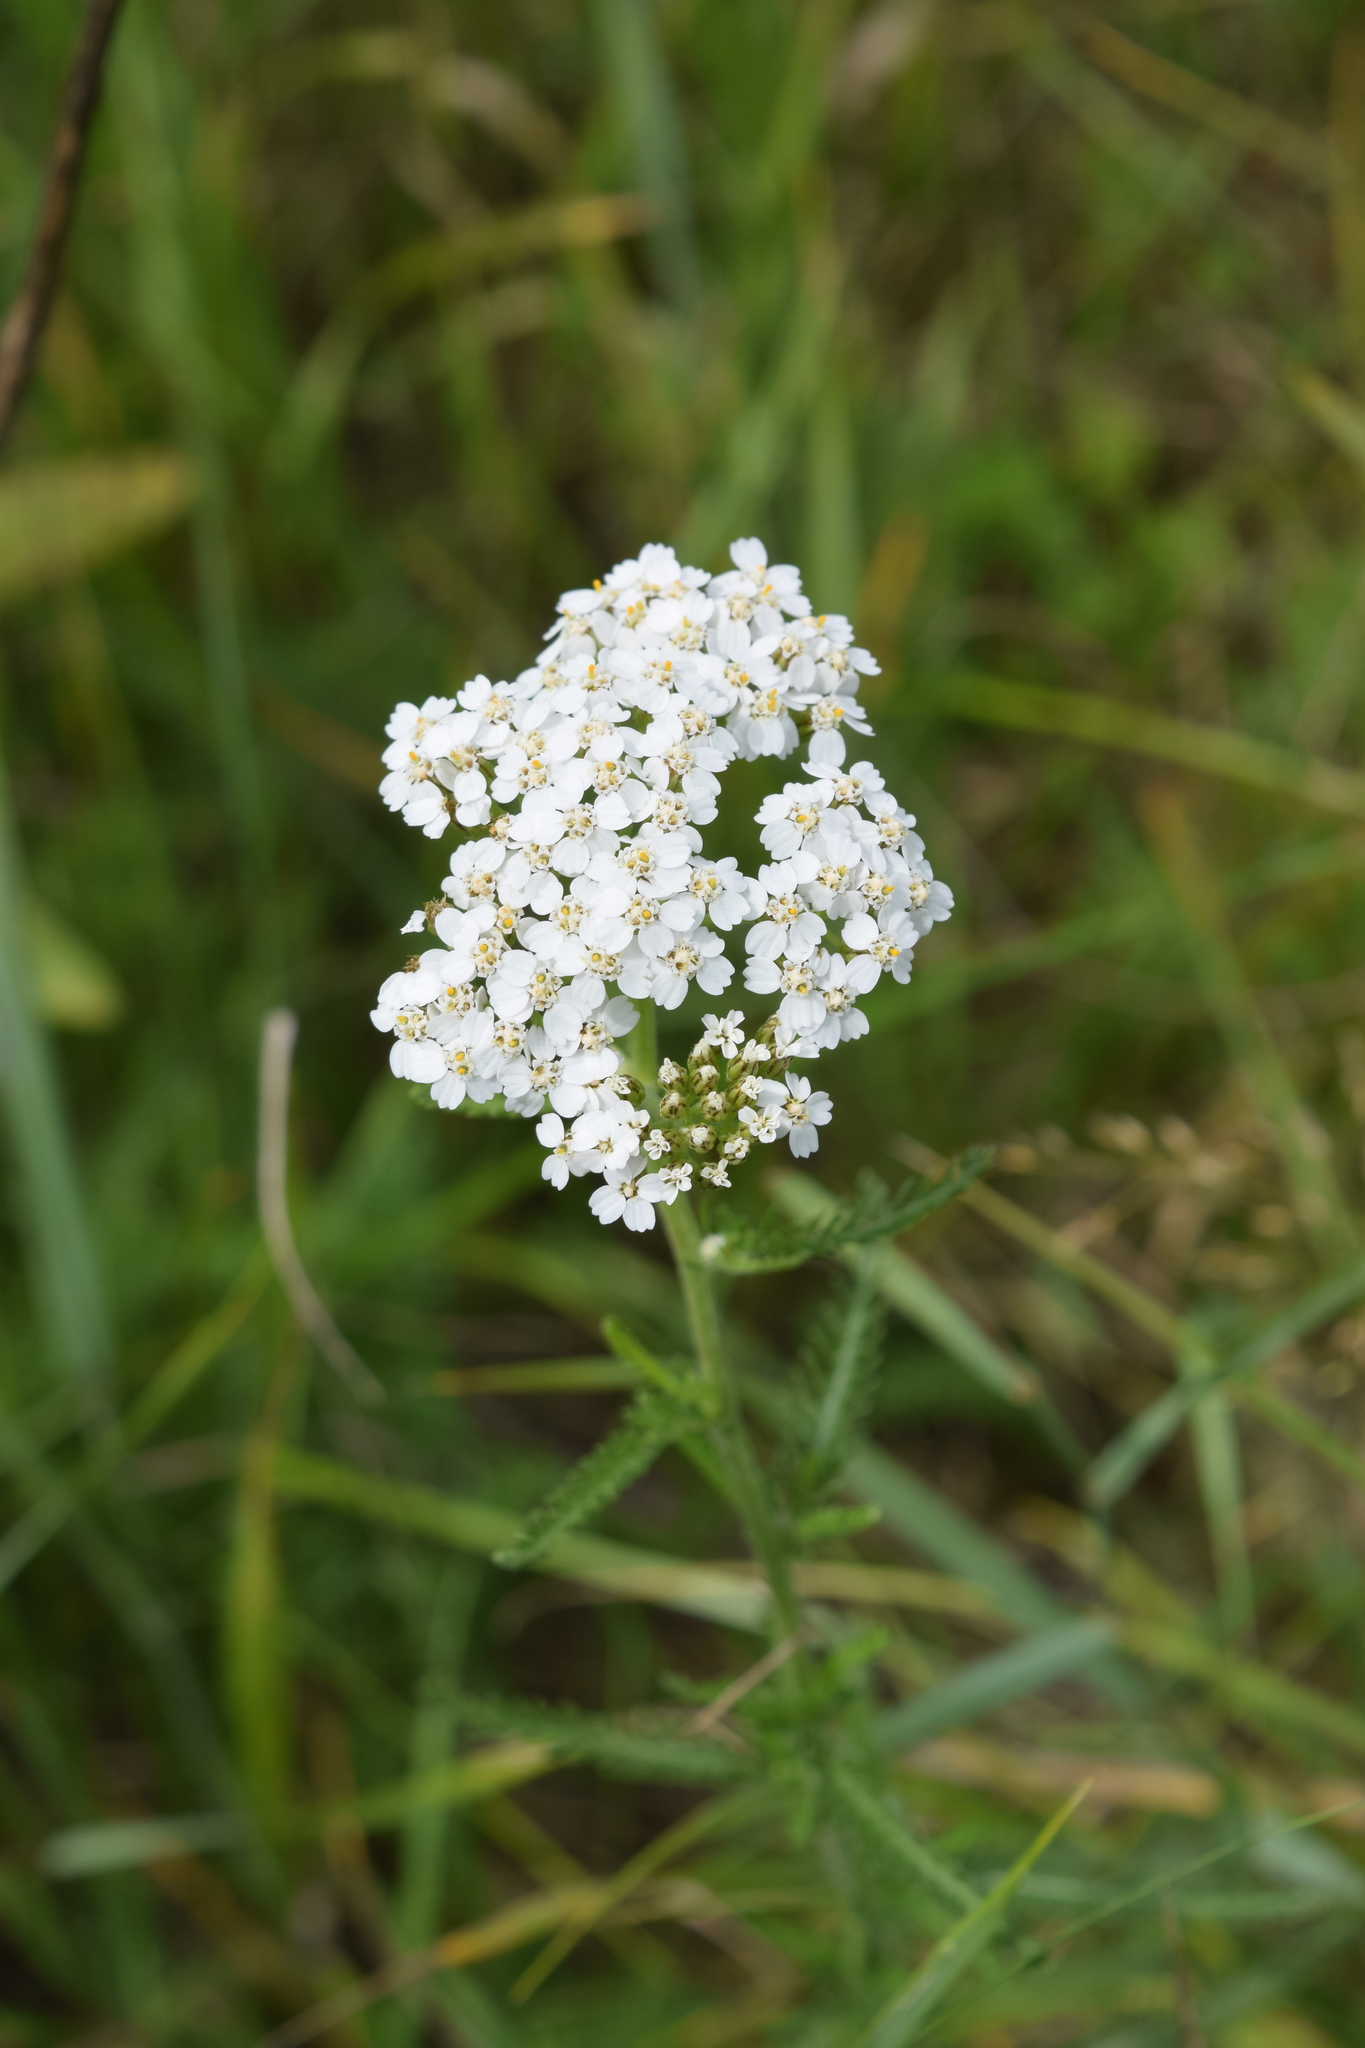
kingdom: Plantae
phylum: Tracheophyta
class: Magnoliopsida
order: Asterales
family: Asteraceae
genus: Achillea
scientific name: Achillea millefolium
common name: Yarrow
